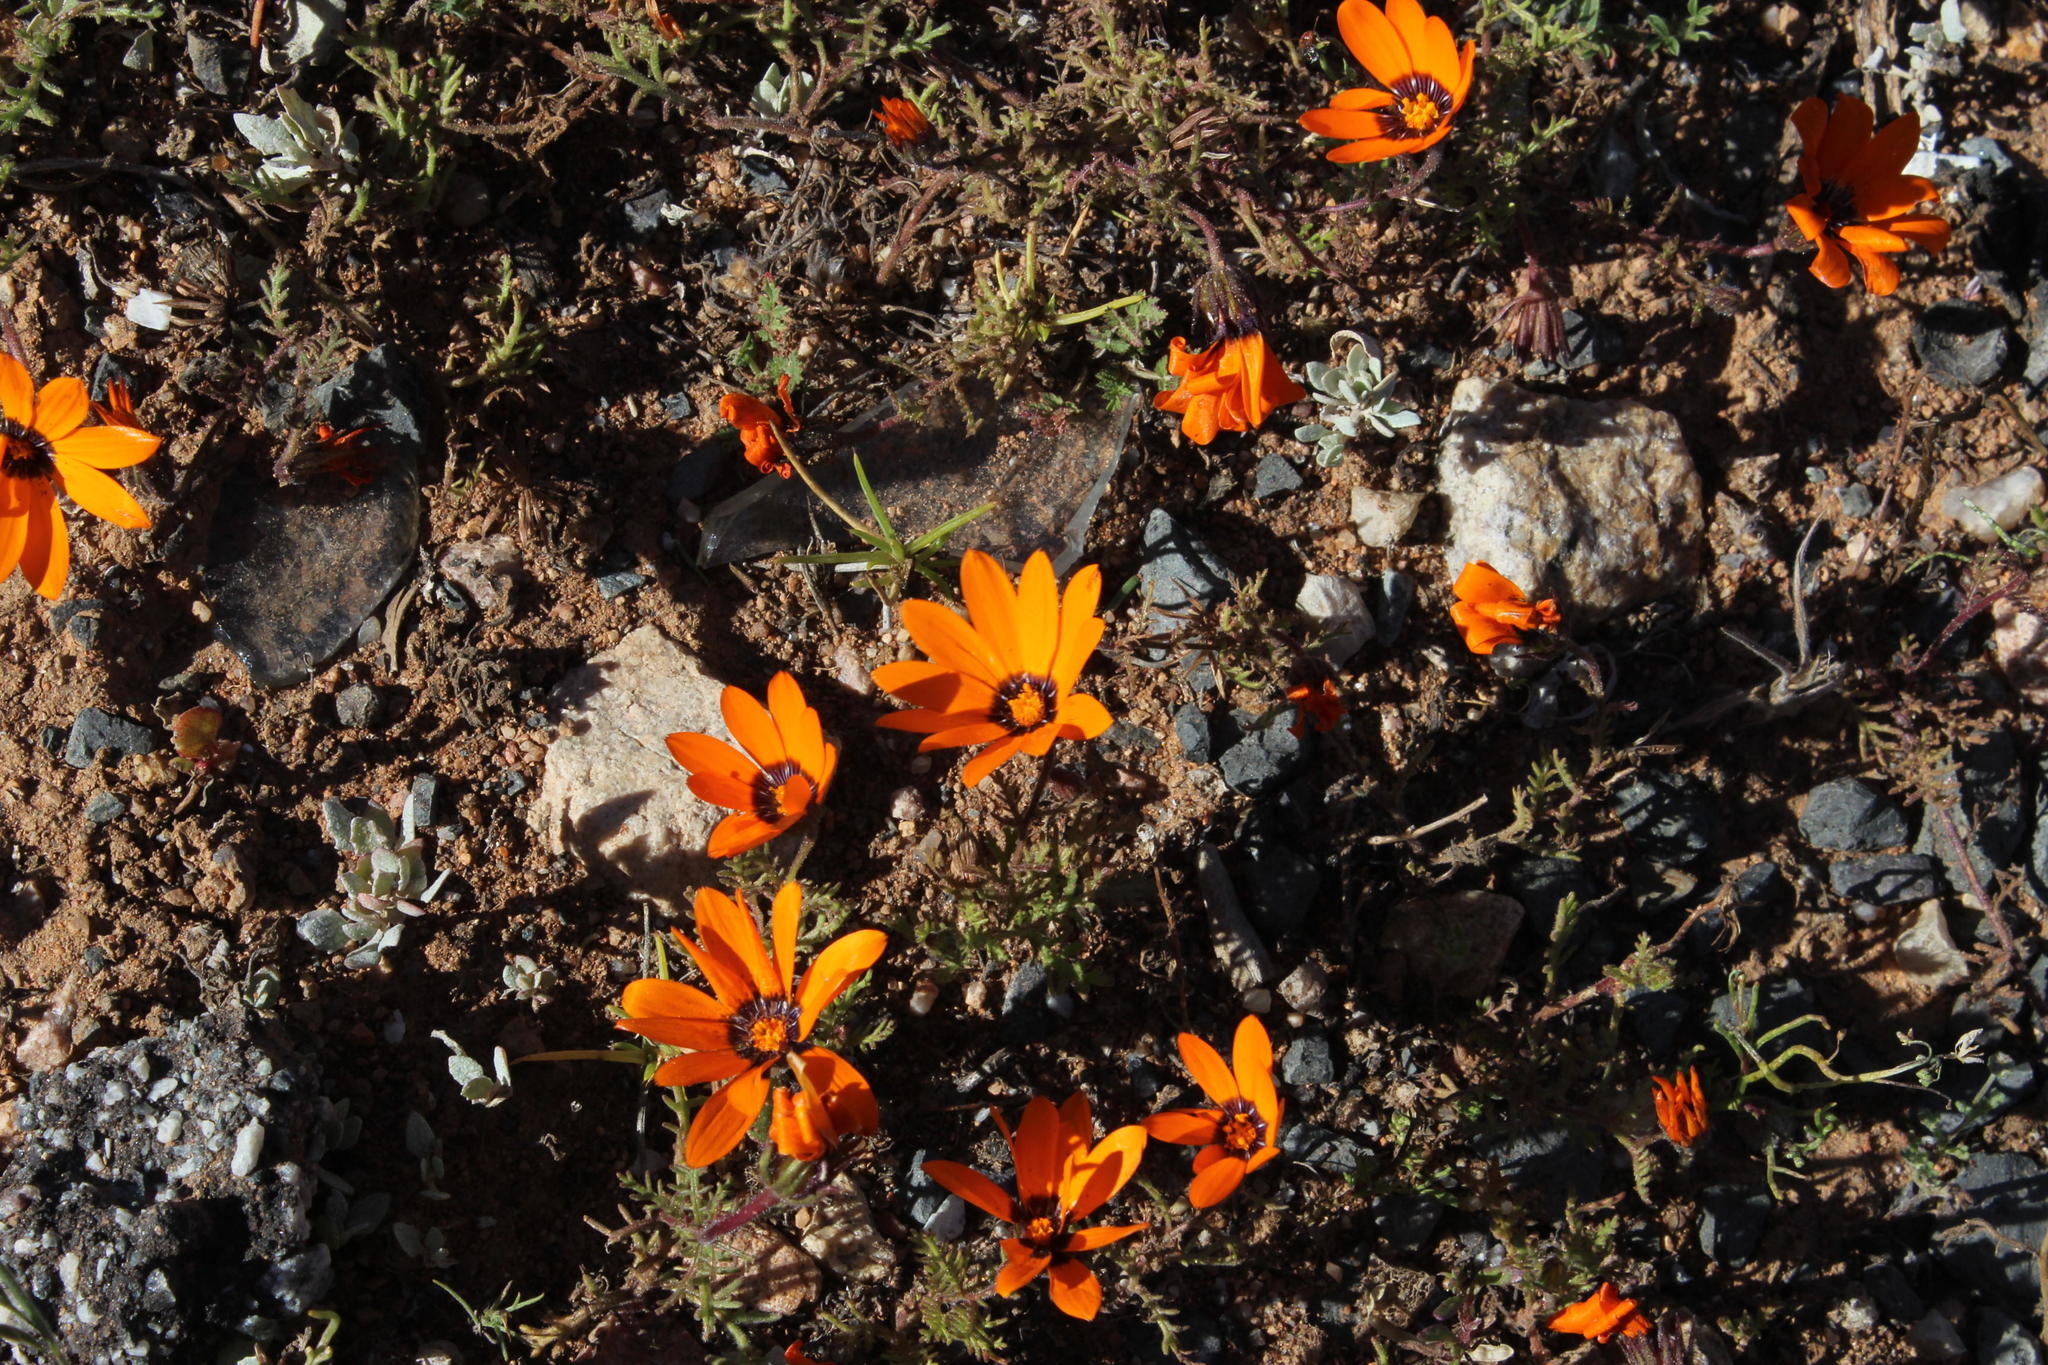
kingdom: Plantae
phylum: Tracheophyta
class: Magnoliopsida
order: Asterales
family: Asteraceae
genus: Dimorphotheca
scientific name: Dimorphotheca pinnata
